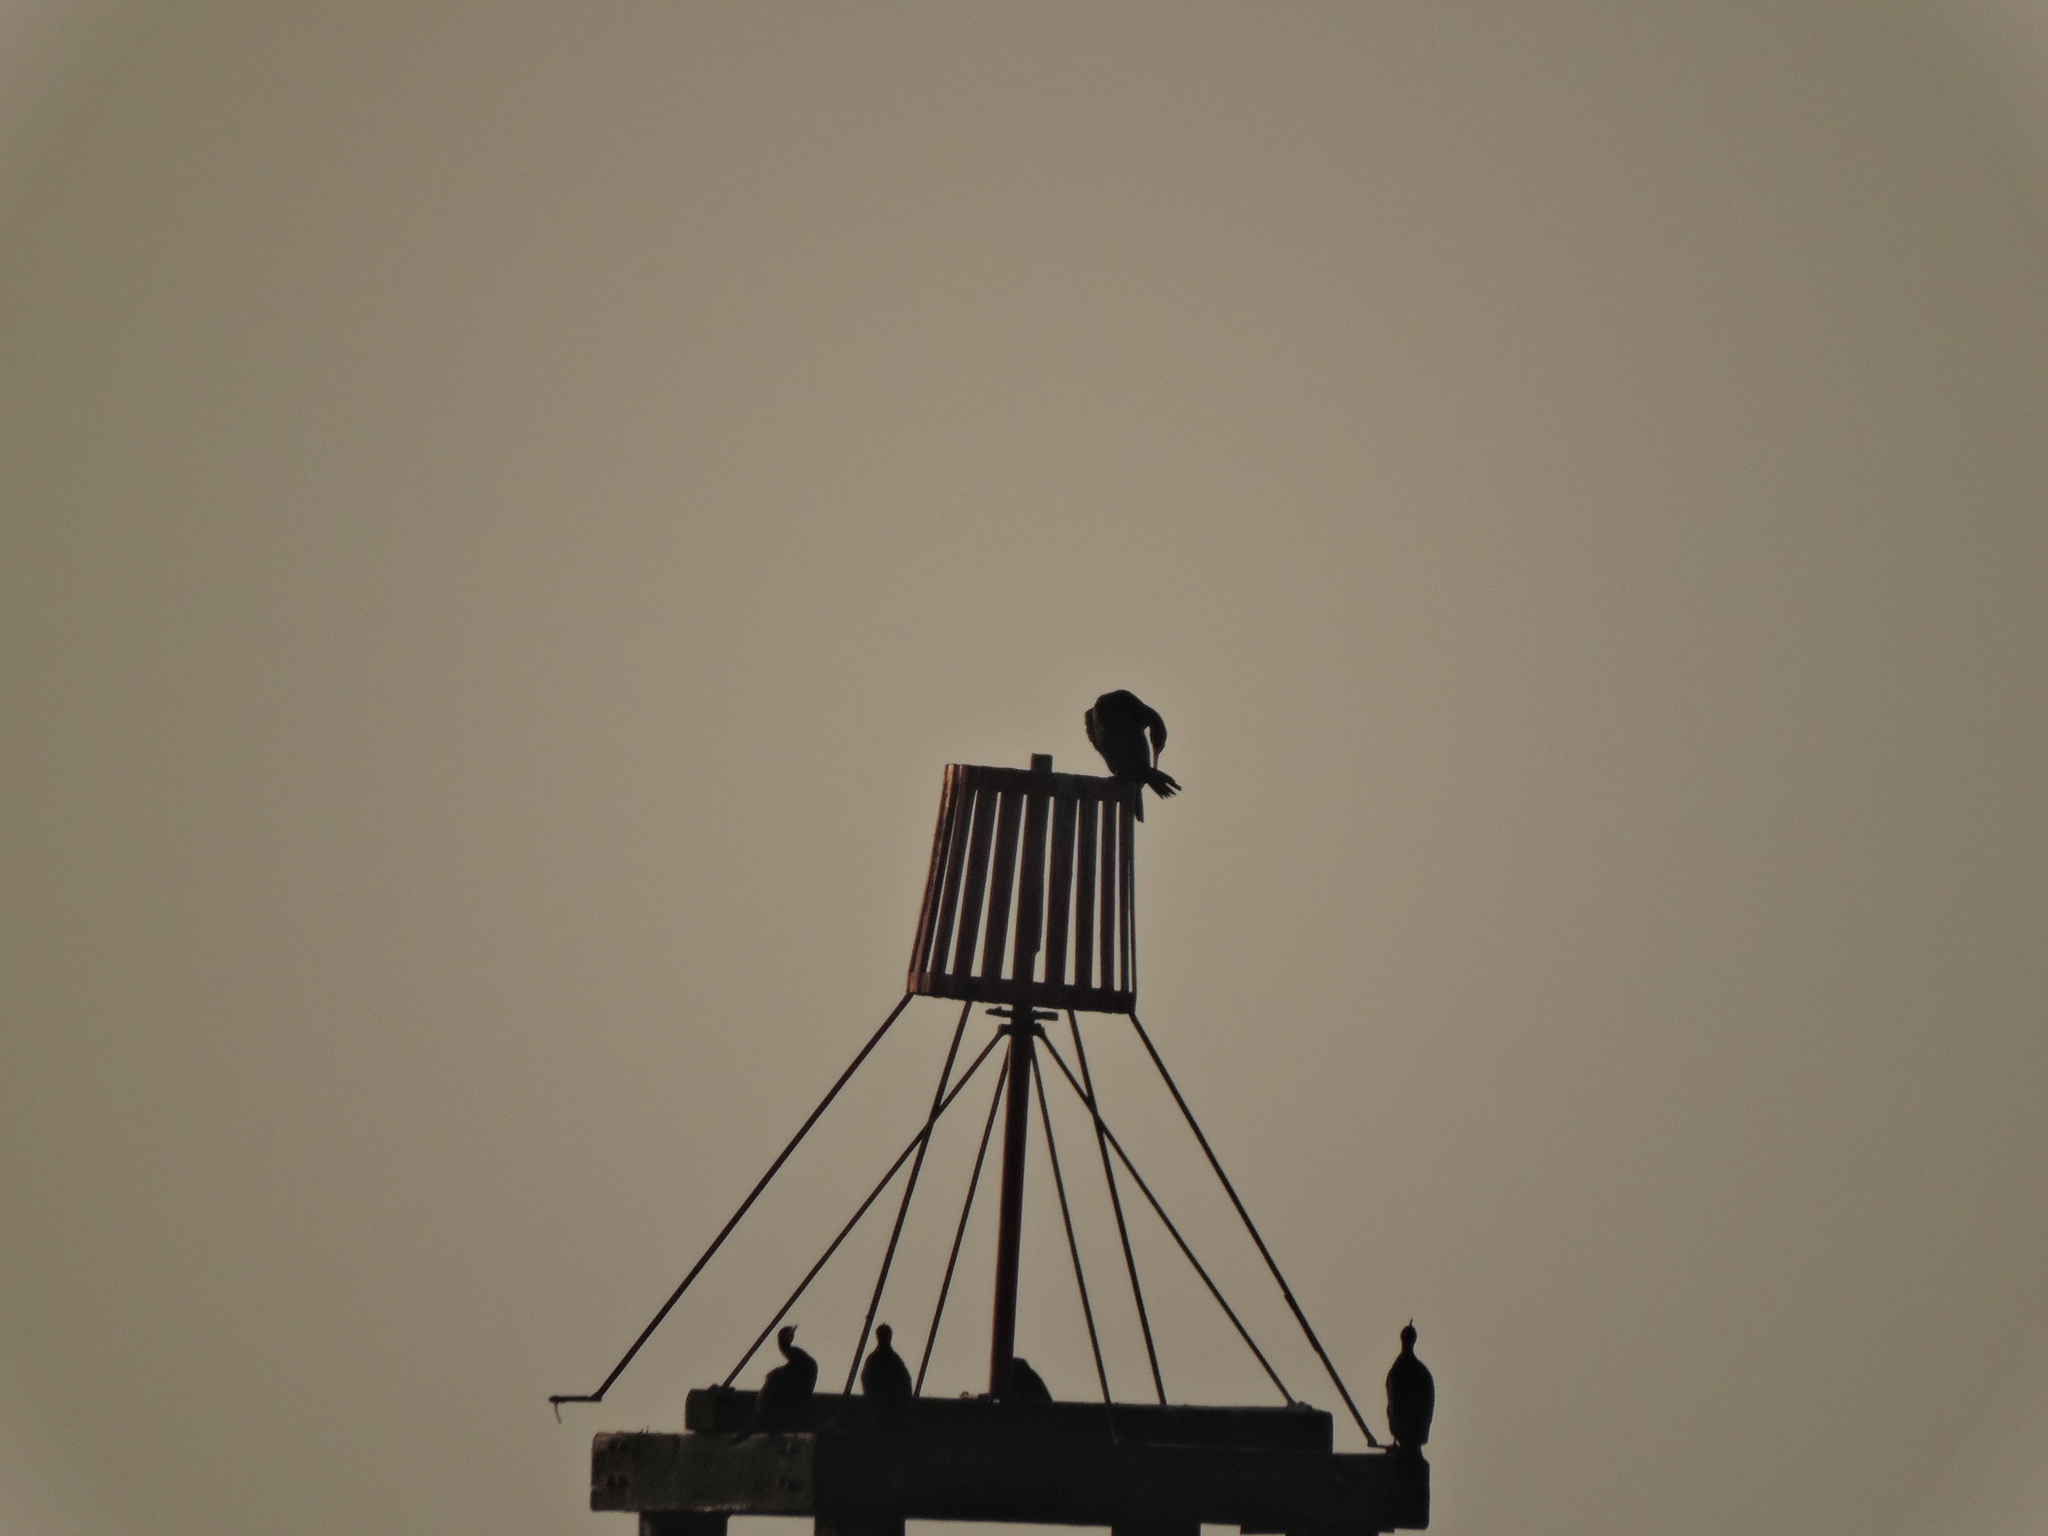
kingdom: Animalia
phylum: Chordata
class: Aves
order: Suliformes
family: Phalacrocoracidae
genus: Phalacrocorax
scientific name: Phalacrocorax carbo
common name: Great cormorant
